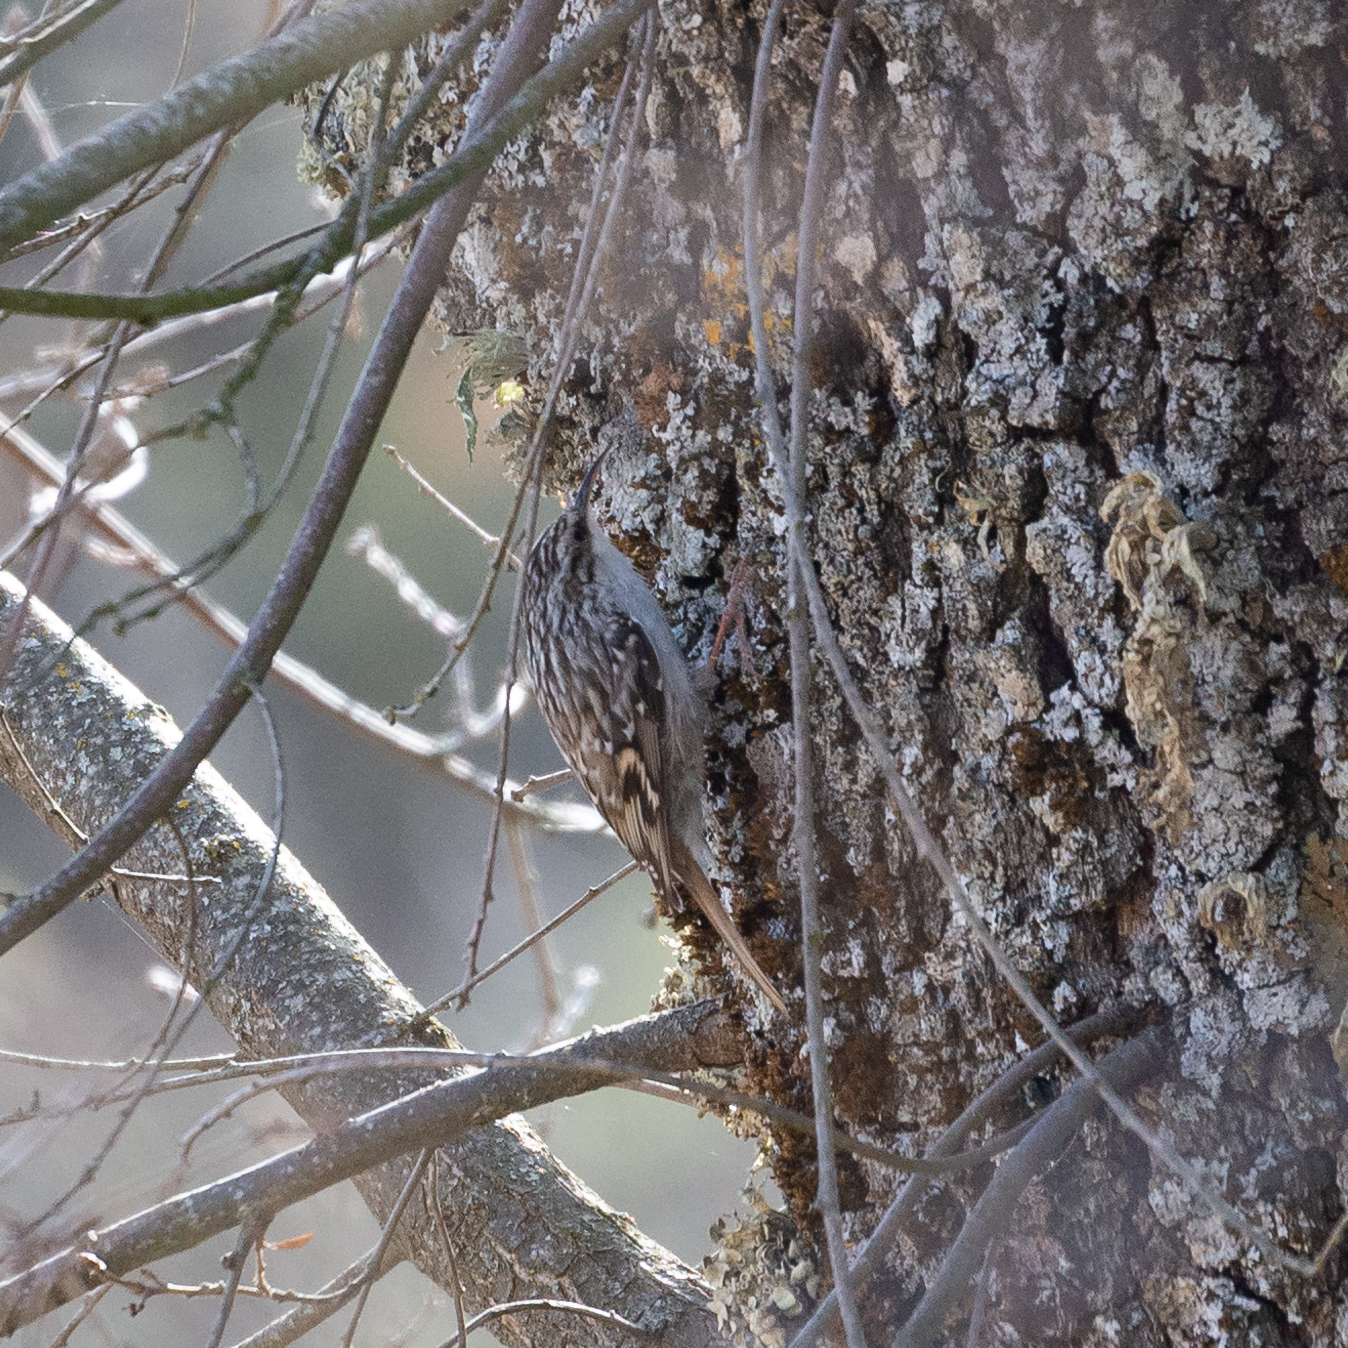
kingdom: Animalia
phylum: Chordata
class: Aves
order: Passeriformes
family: Certhiidae
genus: Certhia
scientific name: Certhia brachydactyla
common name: Short-toed treecreeper
